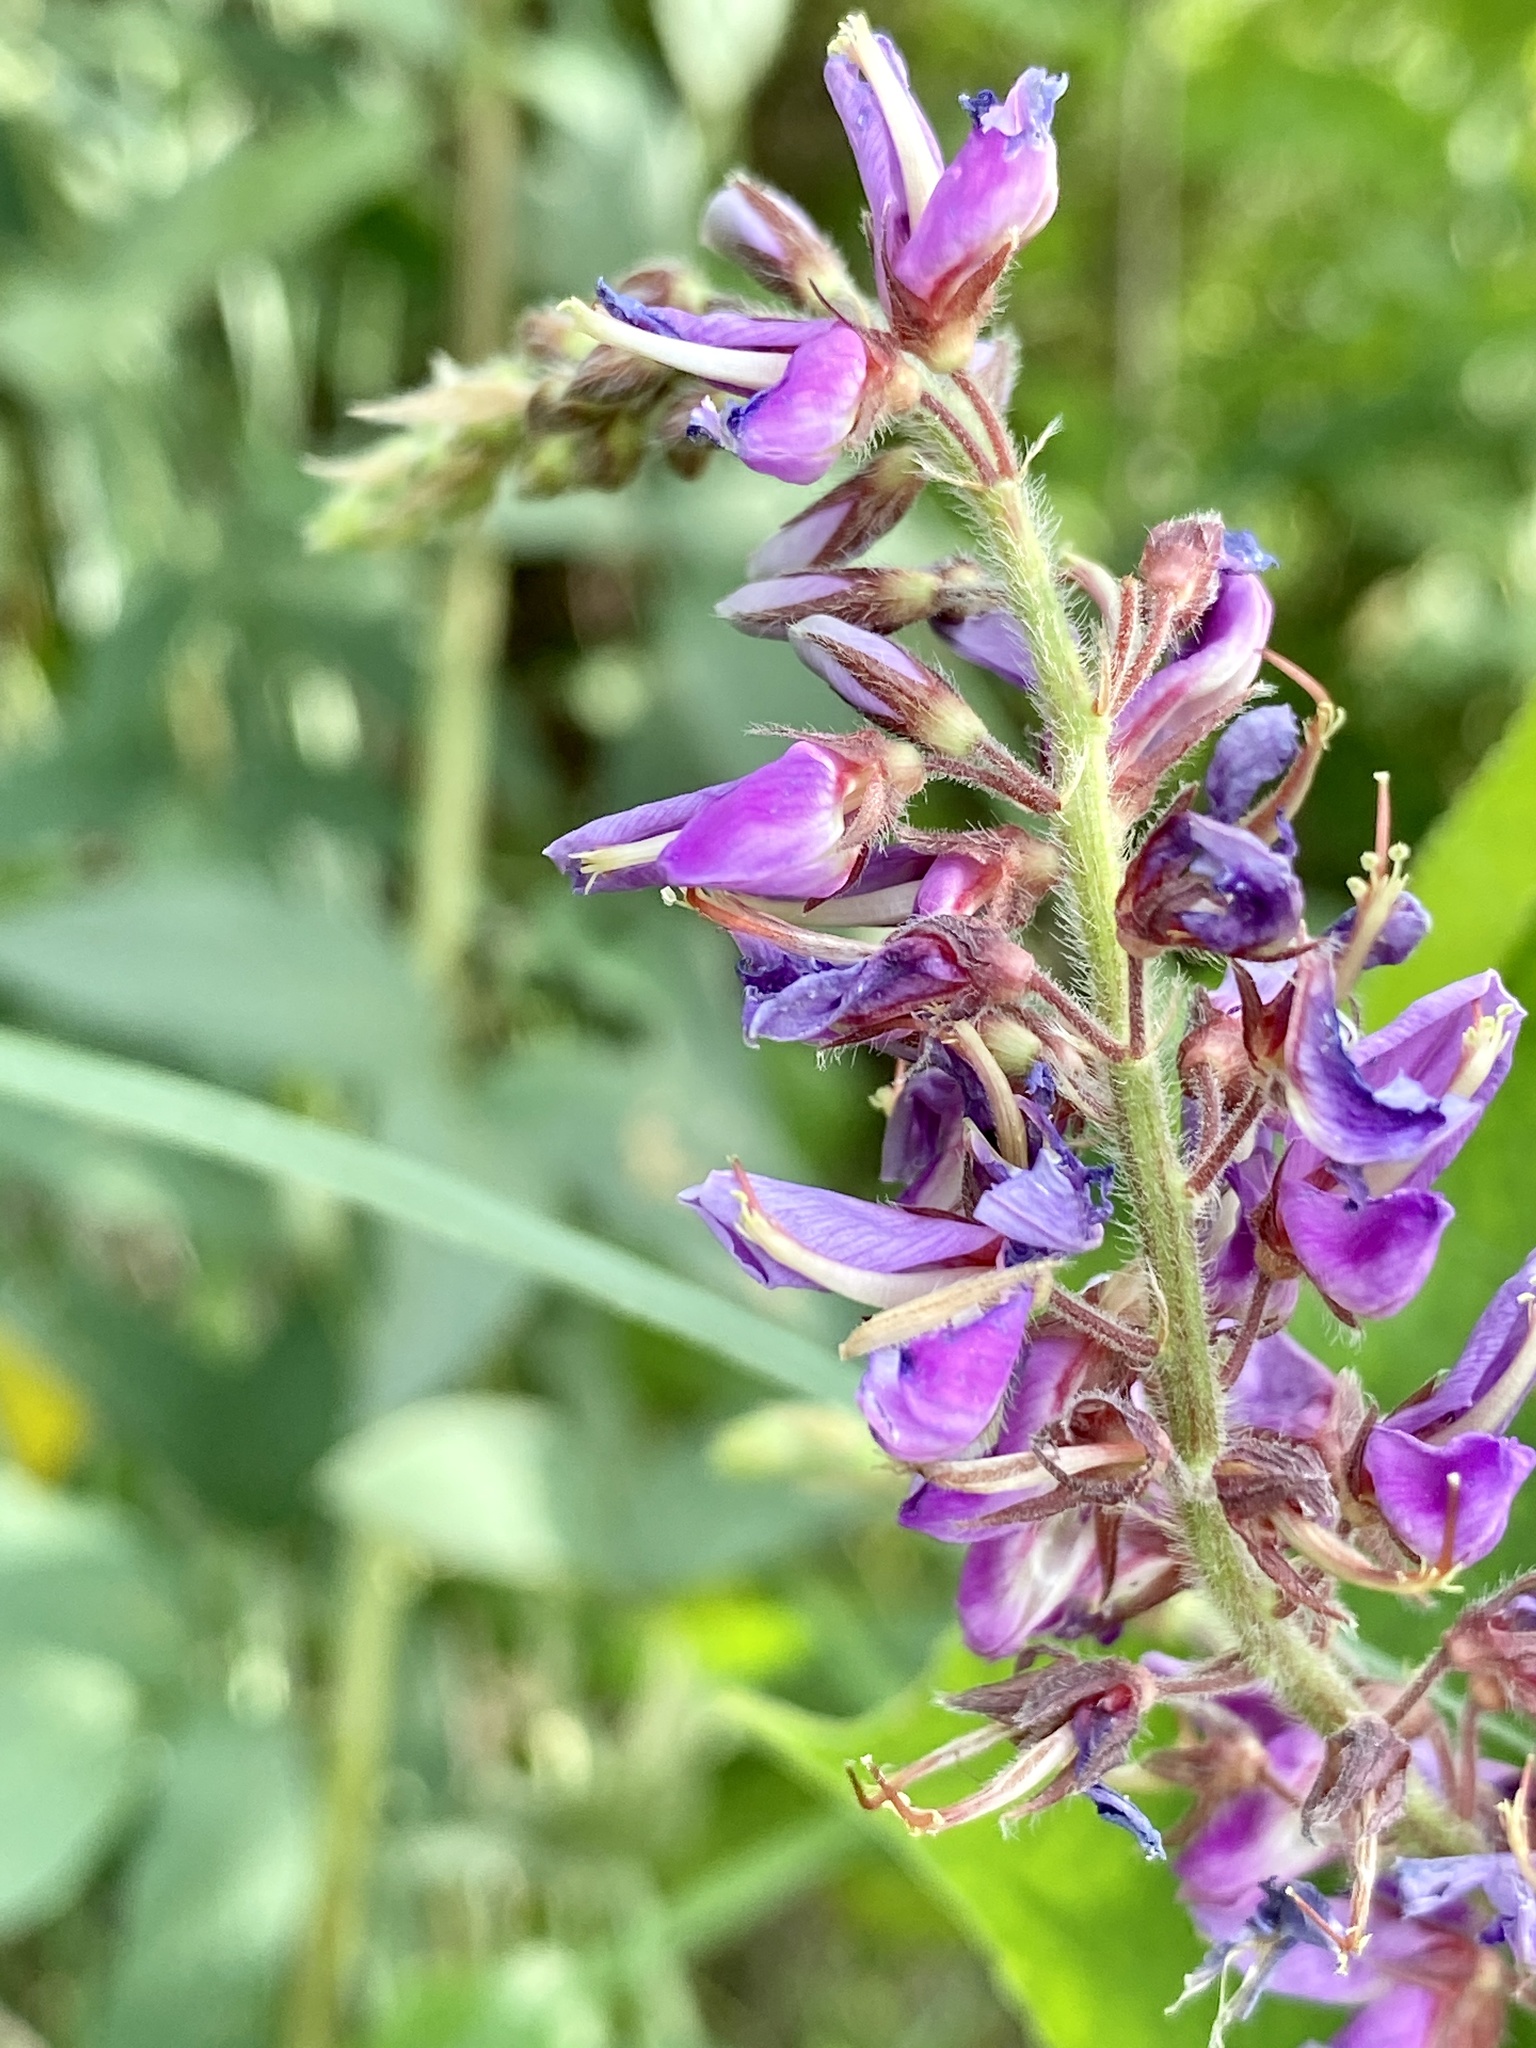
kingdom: Plantae
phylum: Tracheophyta
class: Magnoliopsida
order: Fabales
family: Fabaceae
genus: Desmodium
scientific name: Desmodium canadense
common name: Canada tick-trefoil
